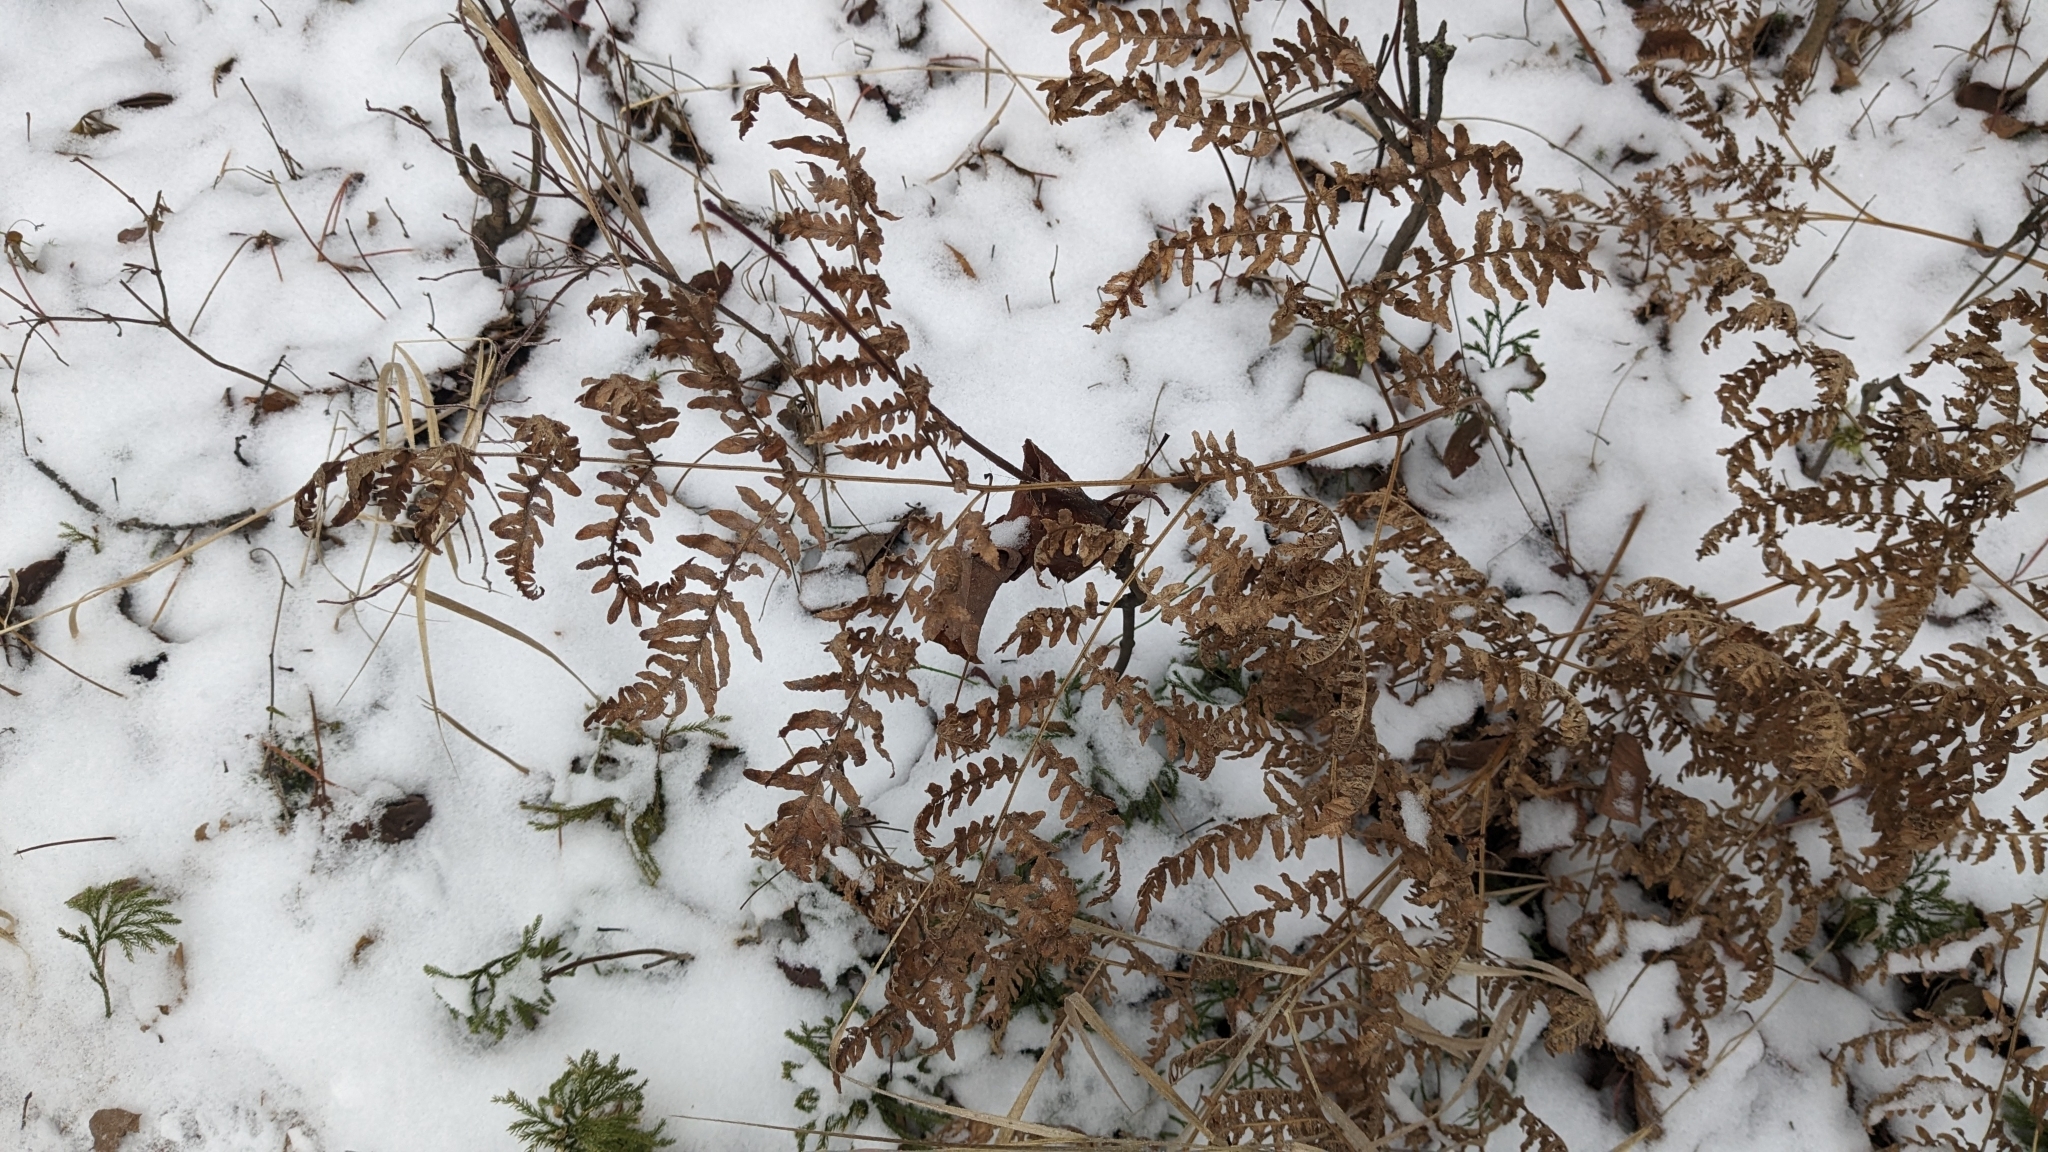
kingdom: Plantae
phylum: Tracheophyta
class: Polypodiopsida
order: Polypodiales
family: Dennstaedtiaceae
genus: Pteridium
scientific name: Pteridium aquilinum
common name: Bracken
